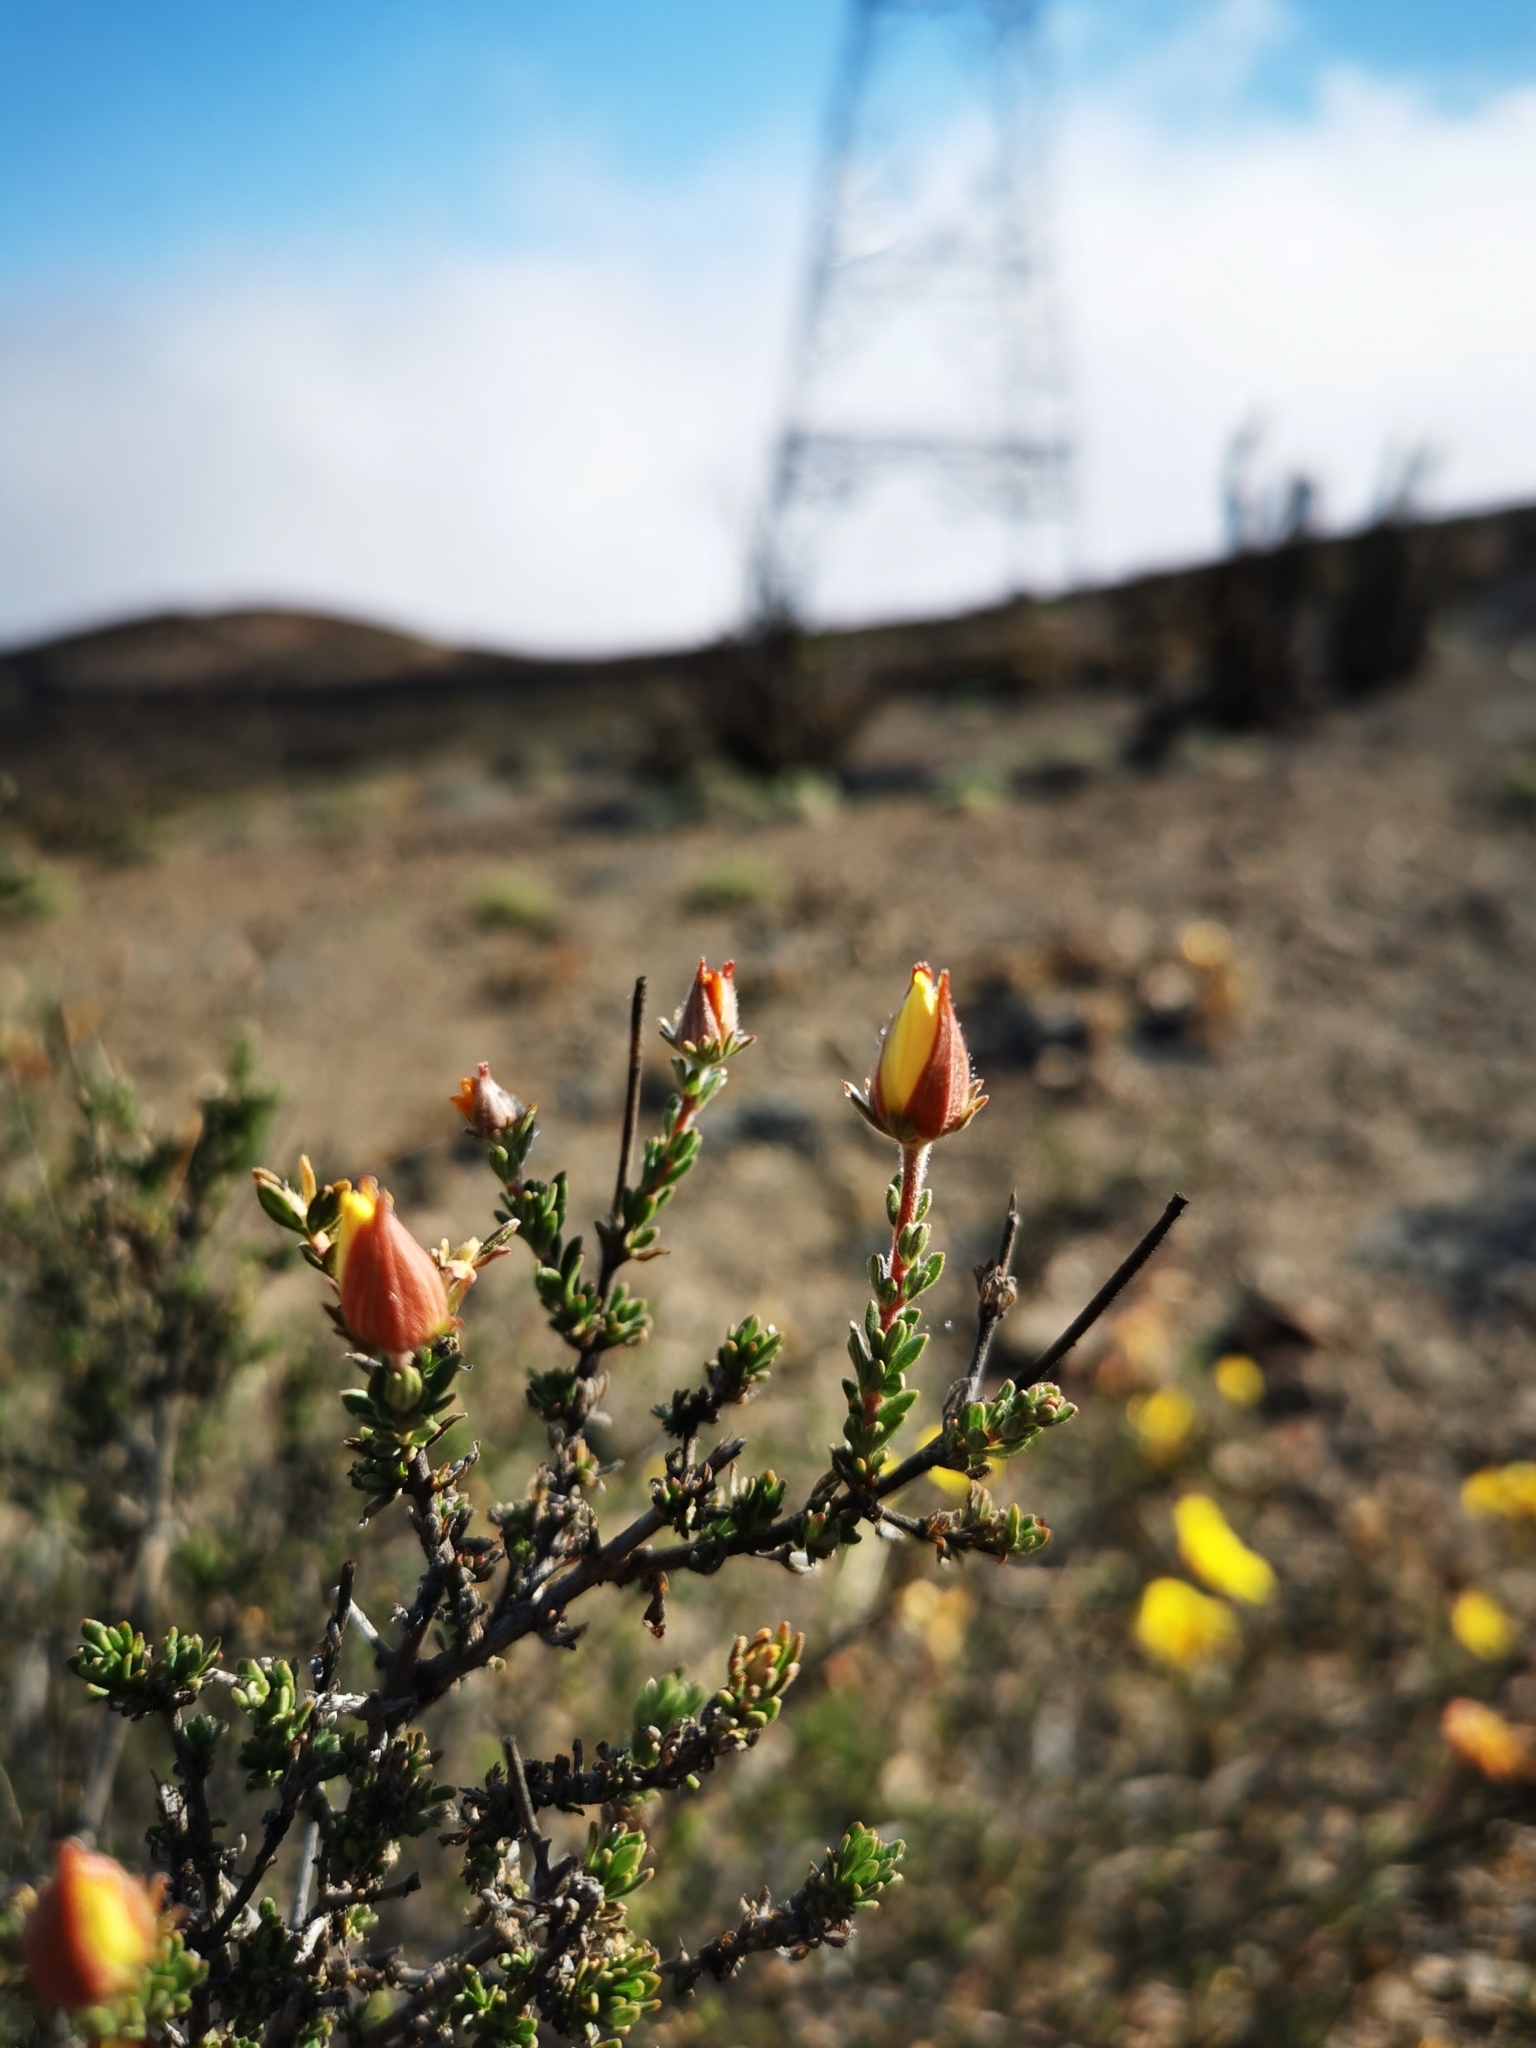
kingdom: Plantae
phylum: Tracheophyta
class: Magnoliopsida
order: Geraniales
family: Vivianiaceae
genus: Balbisia
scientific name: Balbisia peduncularis
